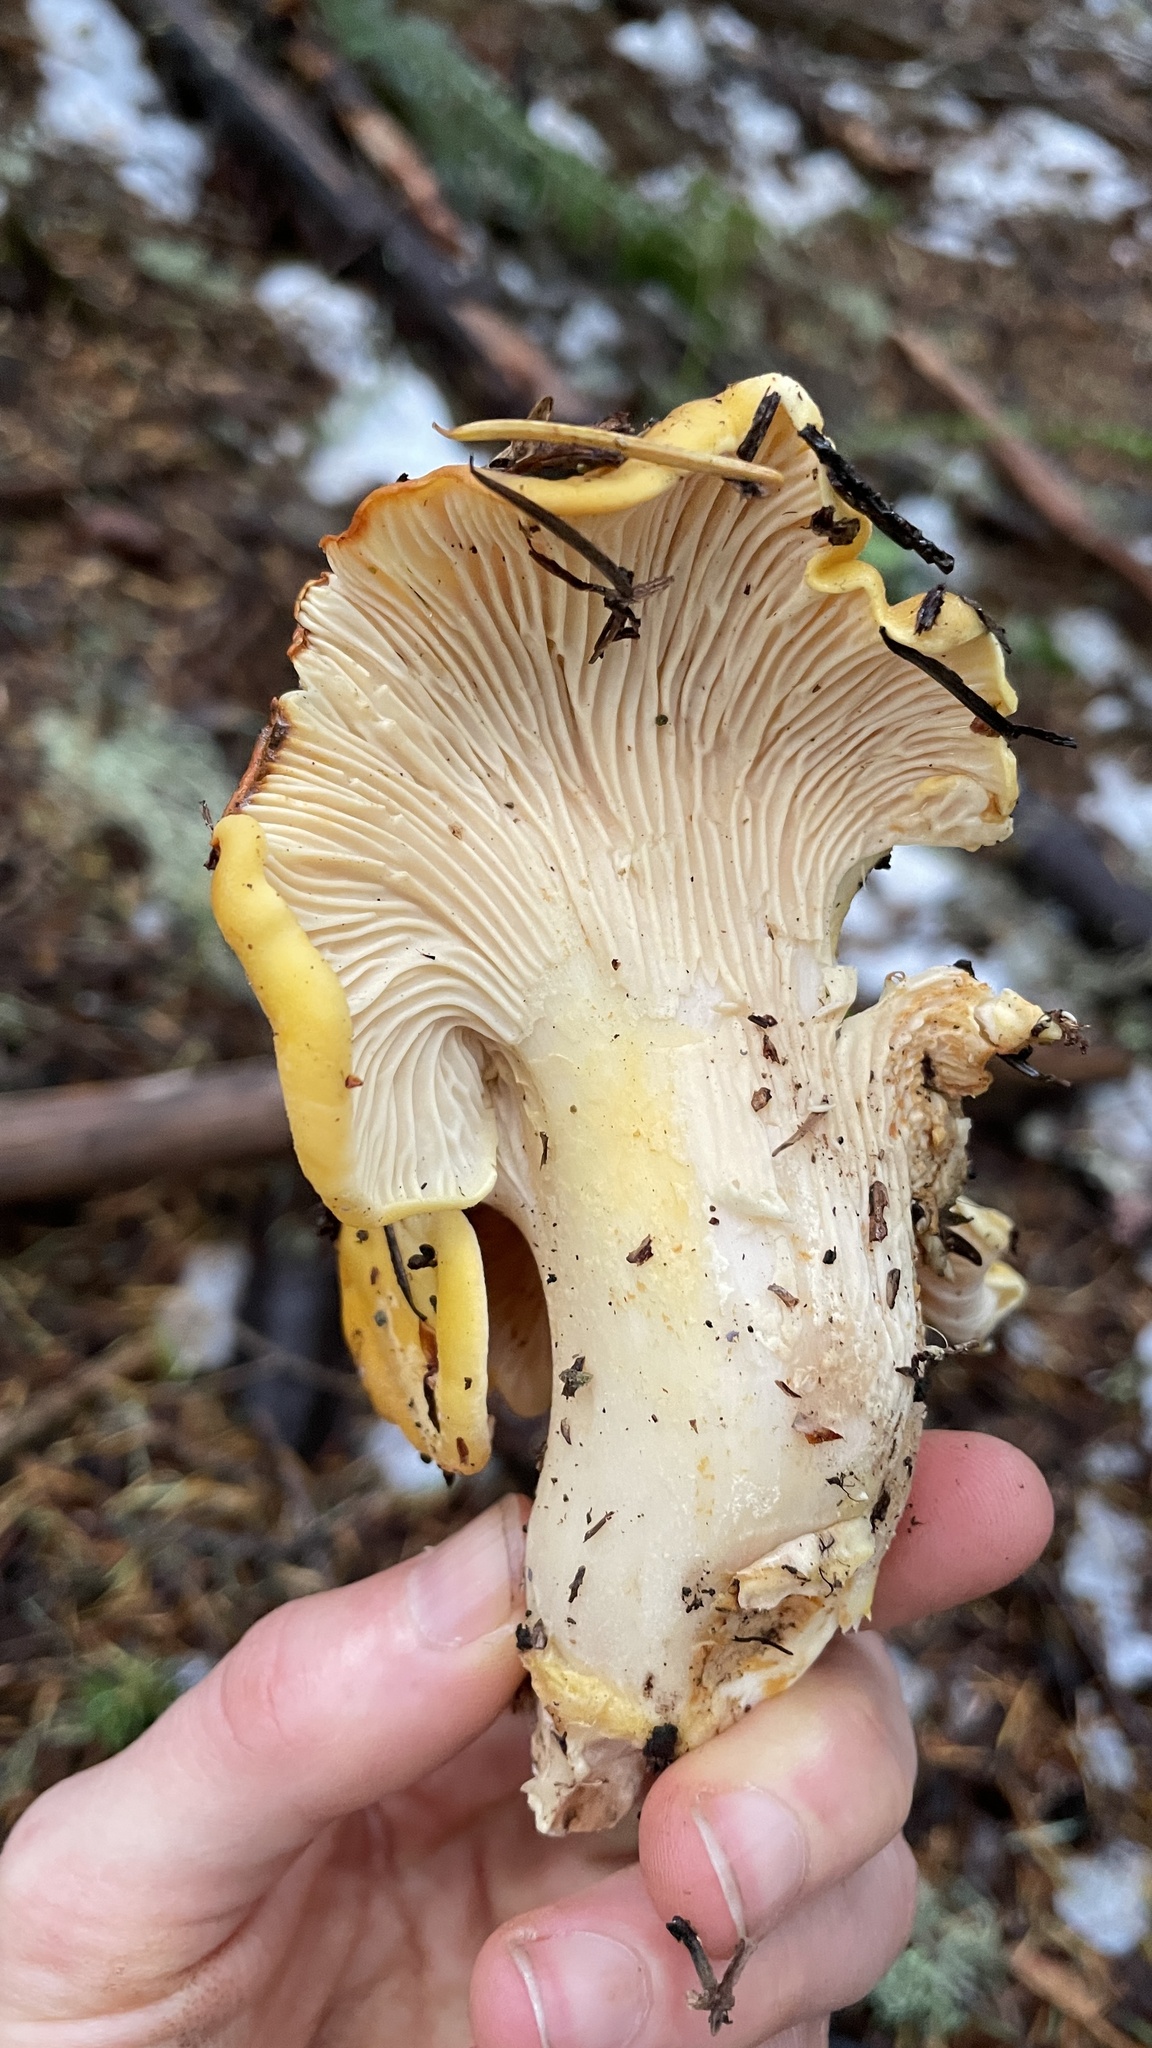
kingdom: Fungi
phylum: Basidiomycota
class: Agaricomycetes
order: Cantharellales
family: Hydnaceae
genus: Cantharellus
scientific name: Cantharellus cascadensis
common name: Cascade chanterelle
